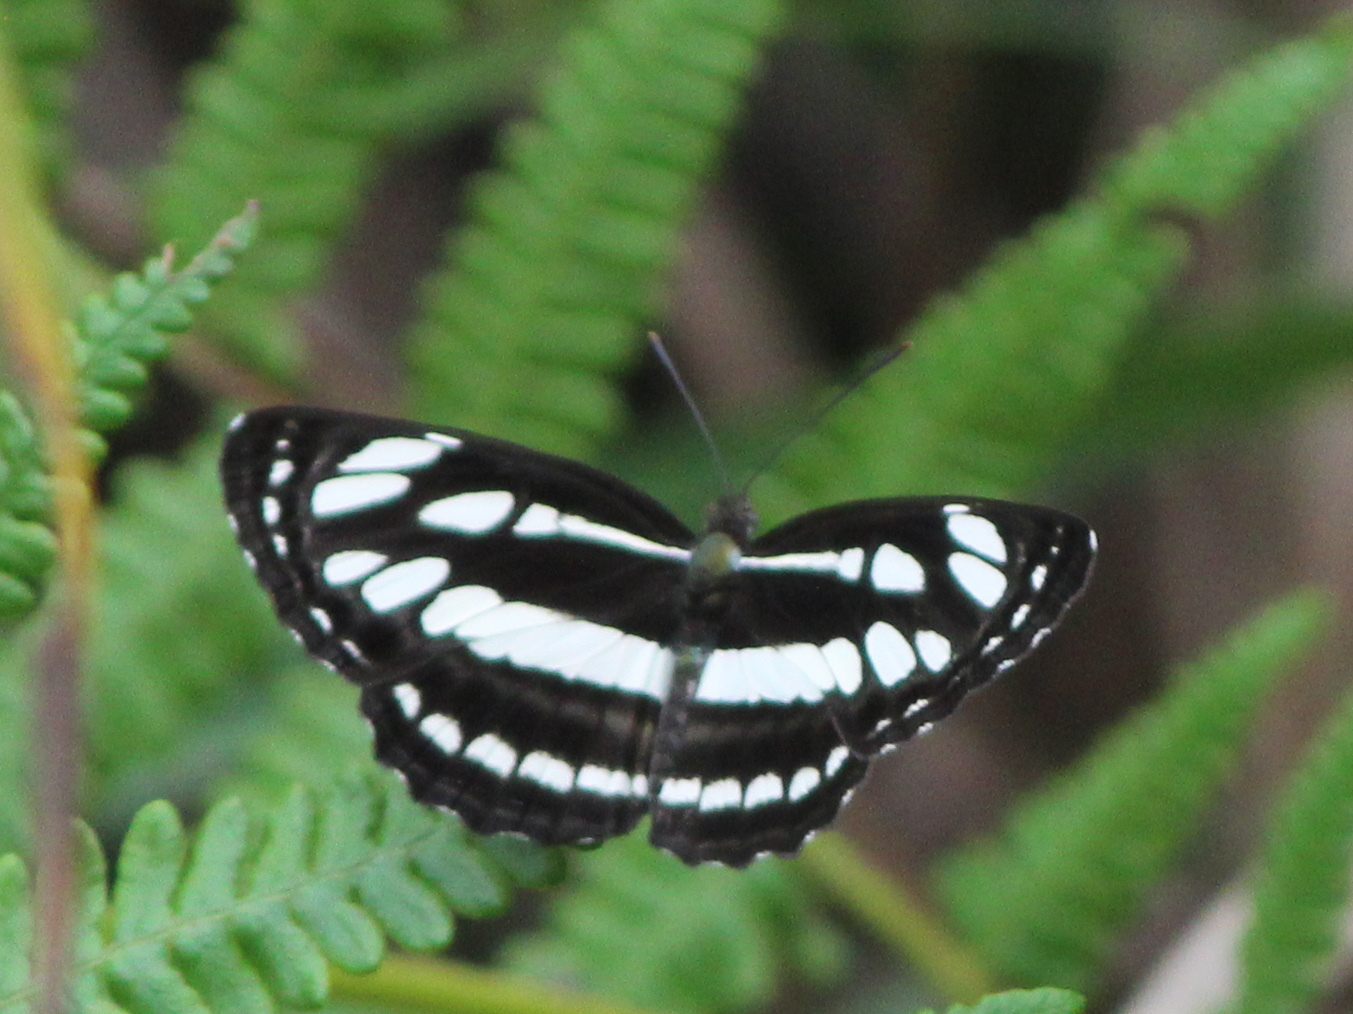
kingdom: Animalia
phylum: Arthropoda
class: Insecta
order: Lepidoptera
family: Nymphalidae
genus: Neptis
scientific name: Neptis hylas
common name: Common sailer
